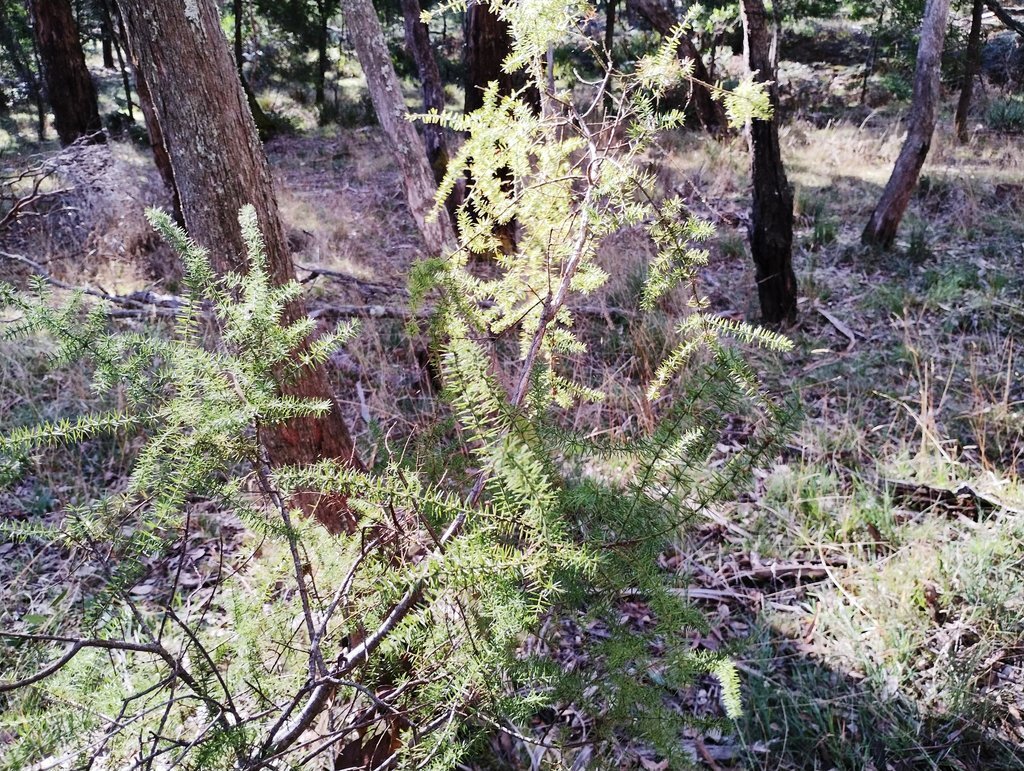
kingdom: Plantae
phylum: Tracheophyta
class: Magnoliopsida
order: Fabales
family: Fabaceae
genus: Acacia
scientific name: Acacia verticillata
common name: Prickly moses
